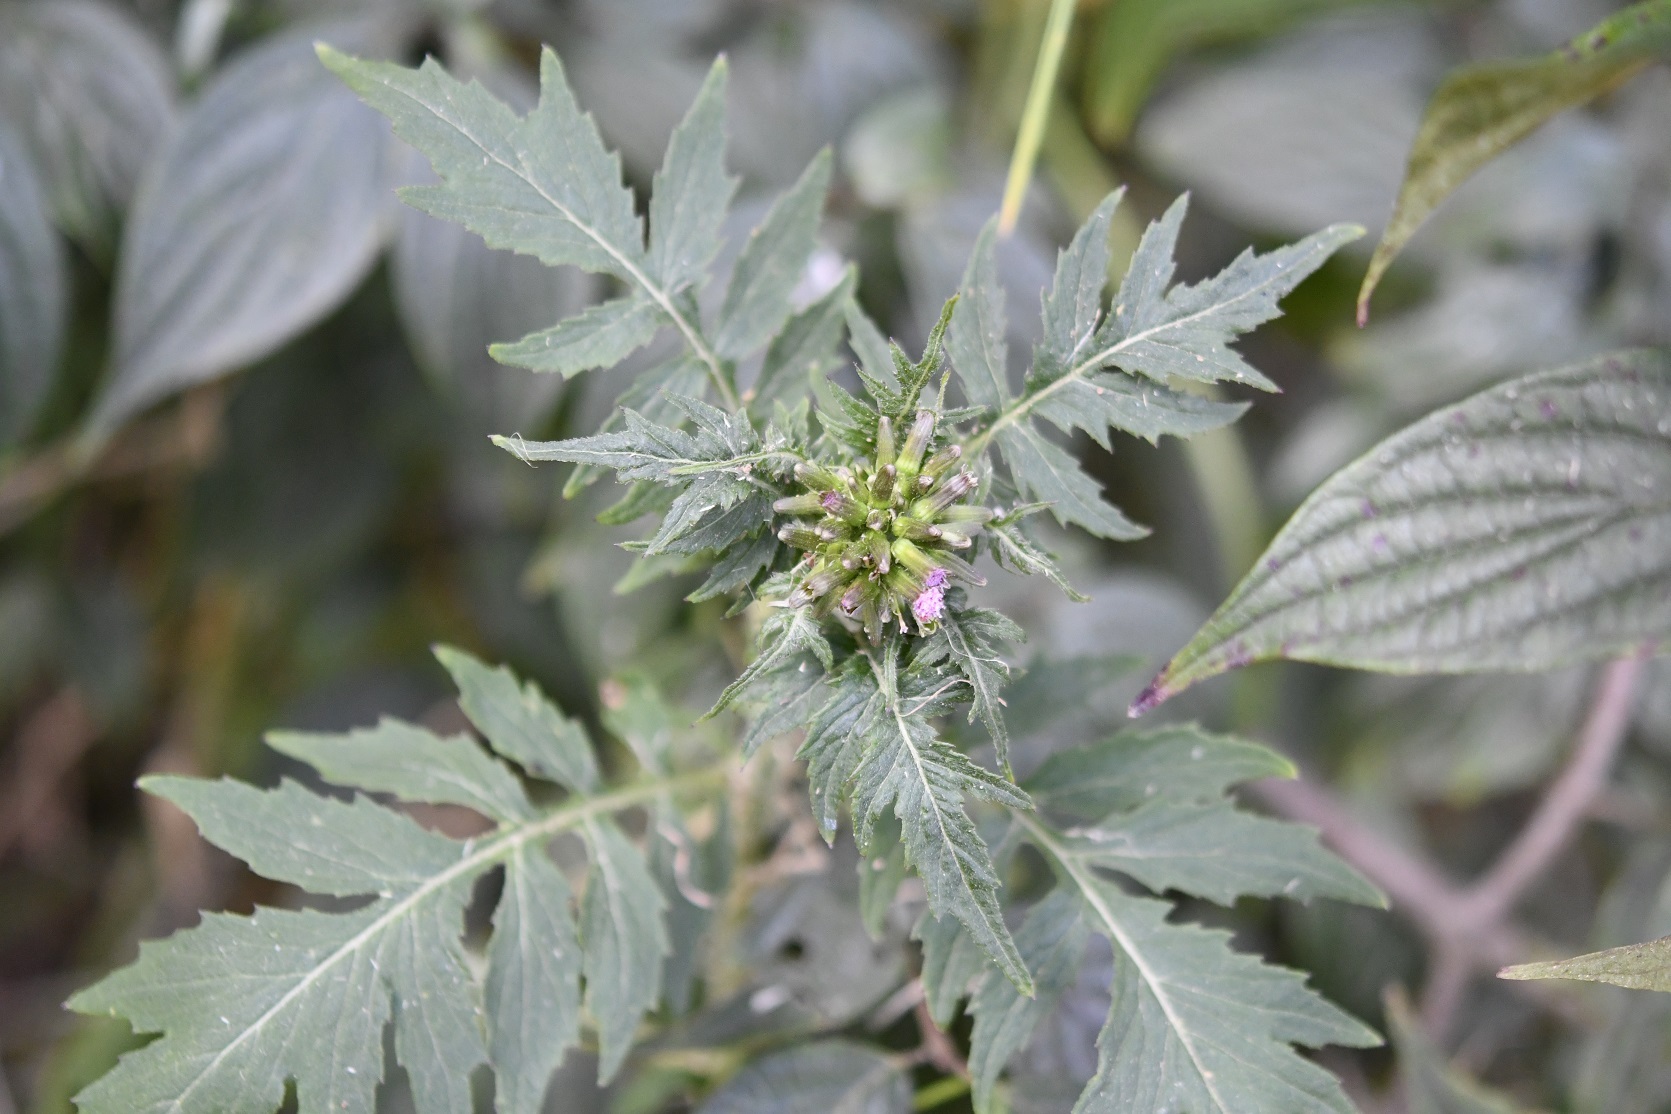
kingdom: Plantae
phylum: Tracheophyta
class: Magnoliopsida
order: Asterales
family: Asteraceae
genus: Erechtites
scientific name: Erechtites valerianifolius
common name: Tropical burnweed
